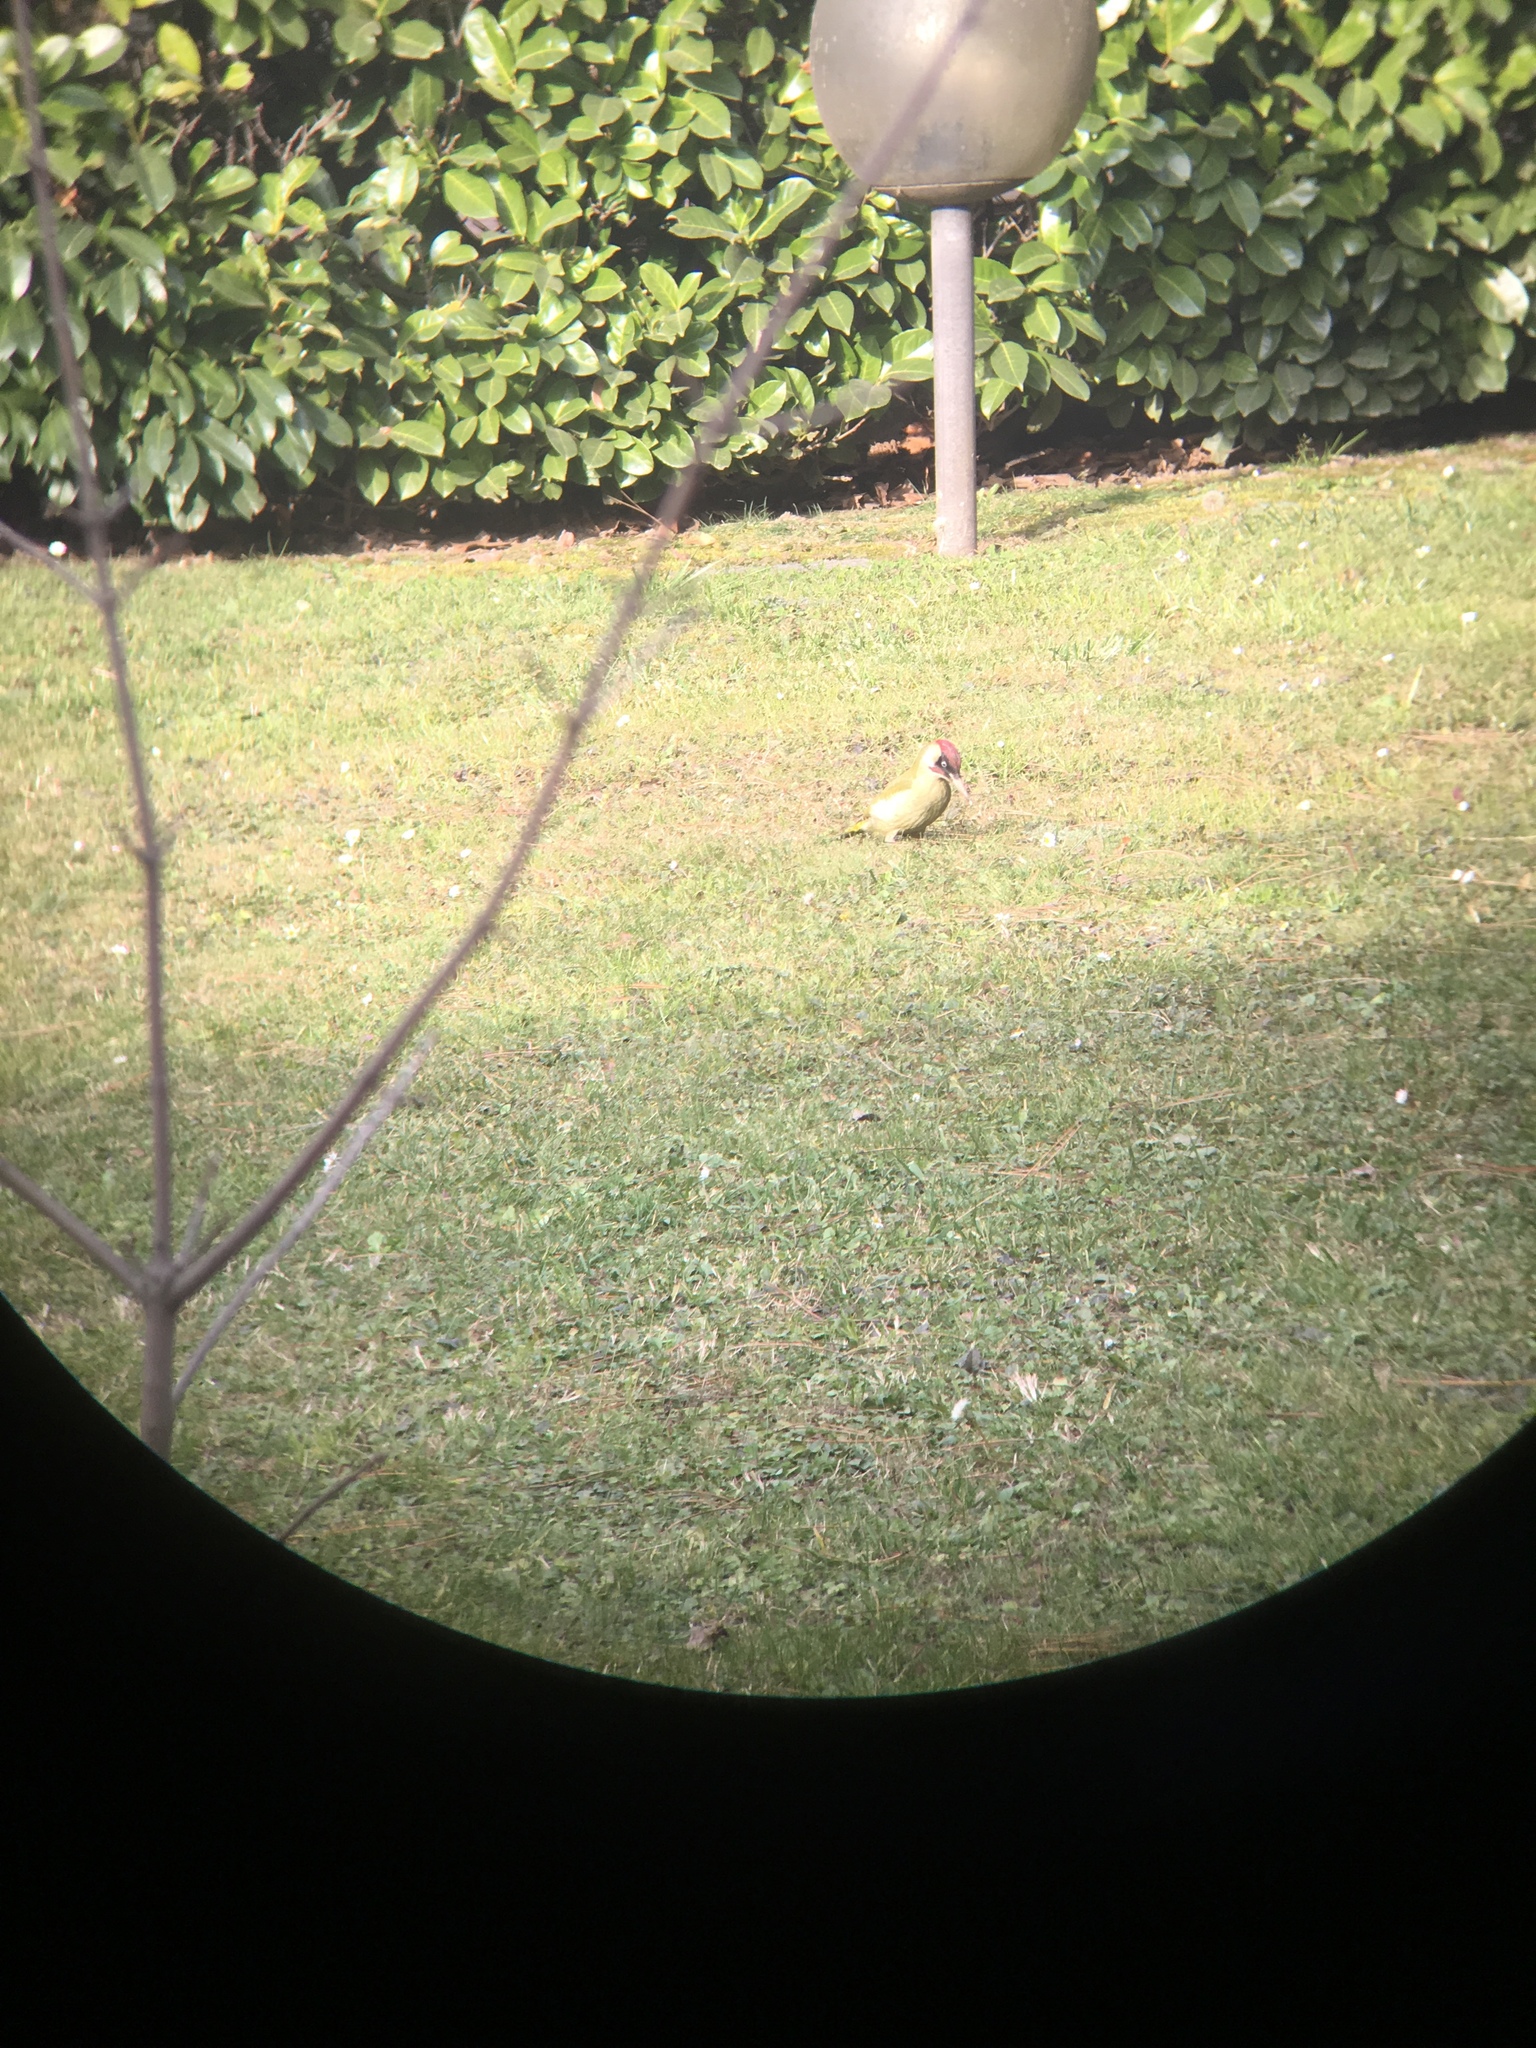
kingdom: Animalia
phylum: Chordata
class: Aves
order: Piciformes
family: Picidae
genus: Picus
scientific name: Picus viridis
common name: European green woodpecker
